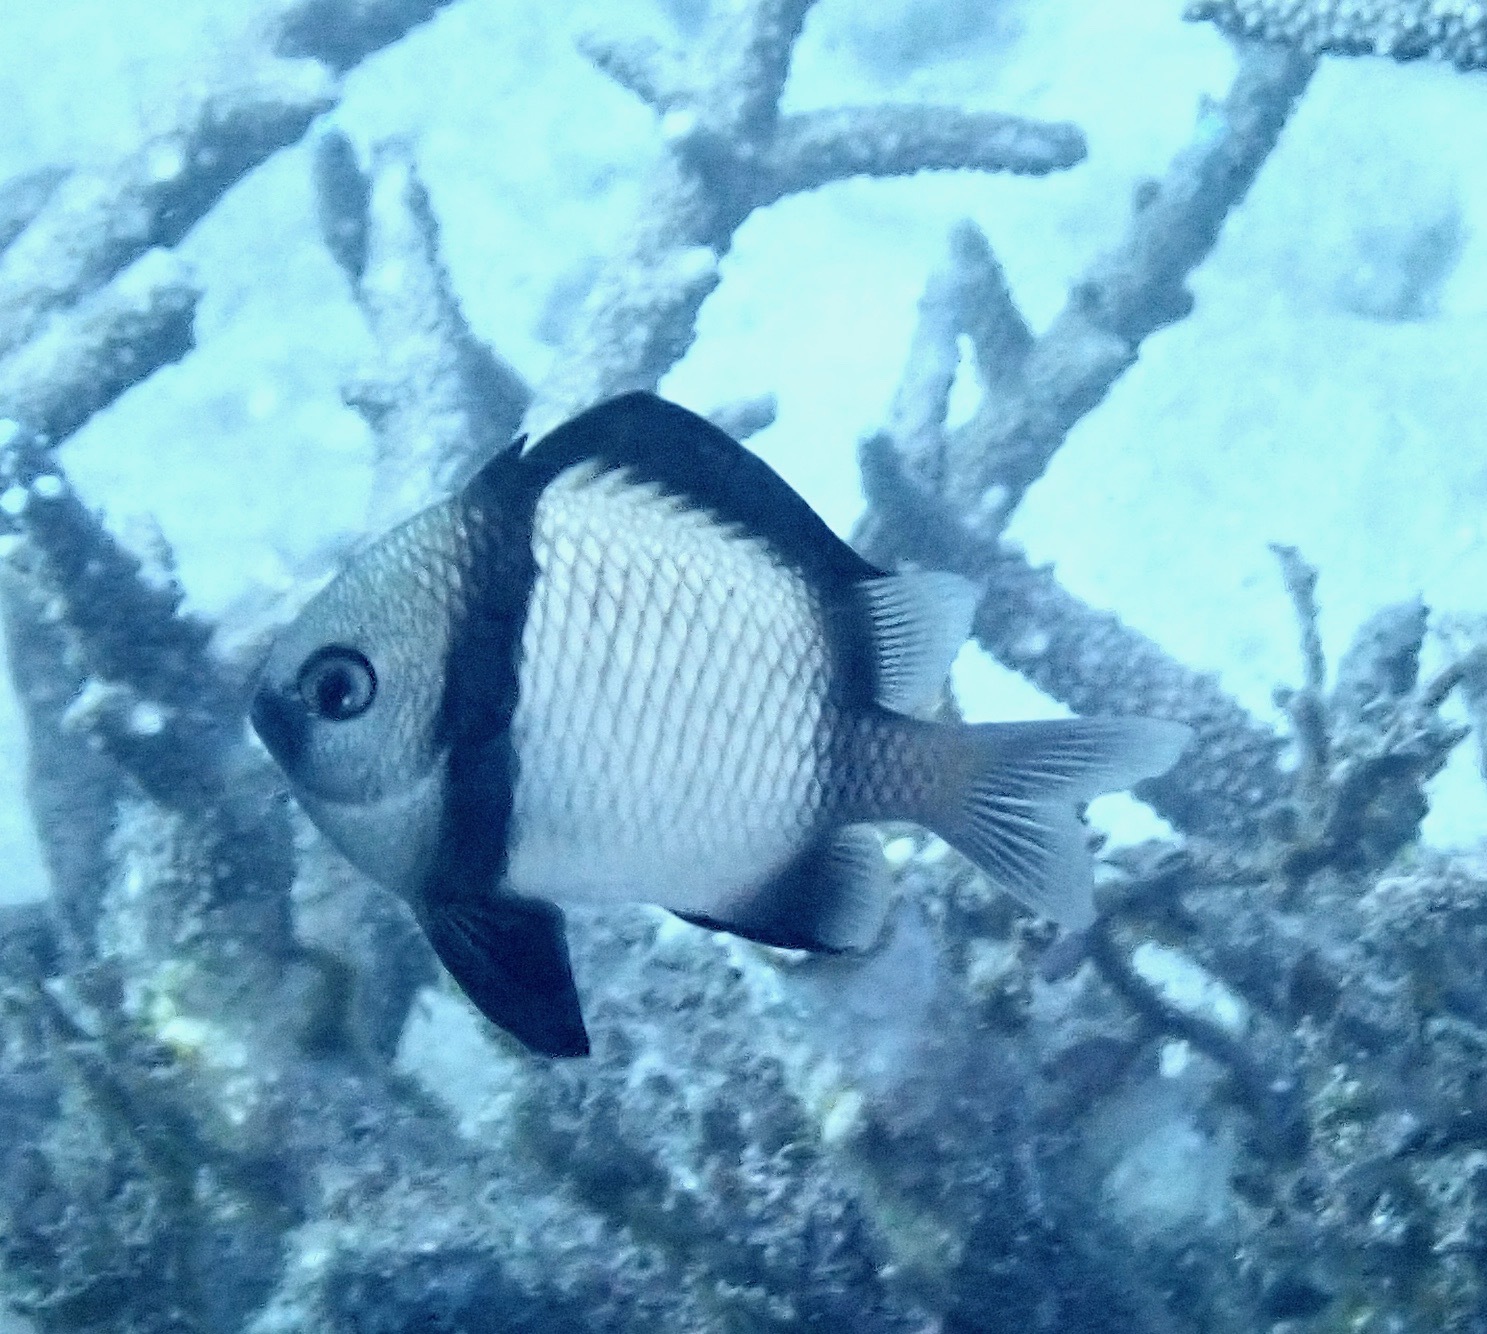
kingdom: Animalia
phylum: Chordata
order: Perciformes
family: Pomacentridae
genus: Dascyllus
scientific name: Dascyllus reticulatus
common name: Reticulated dascyllus
